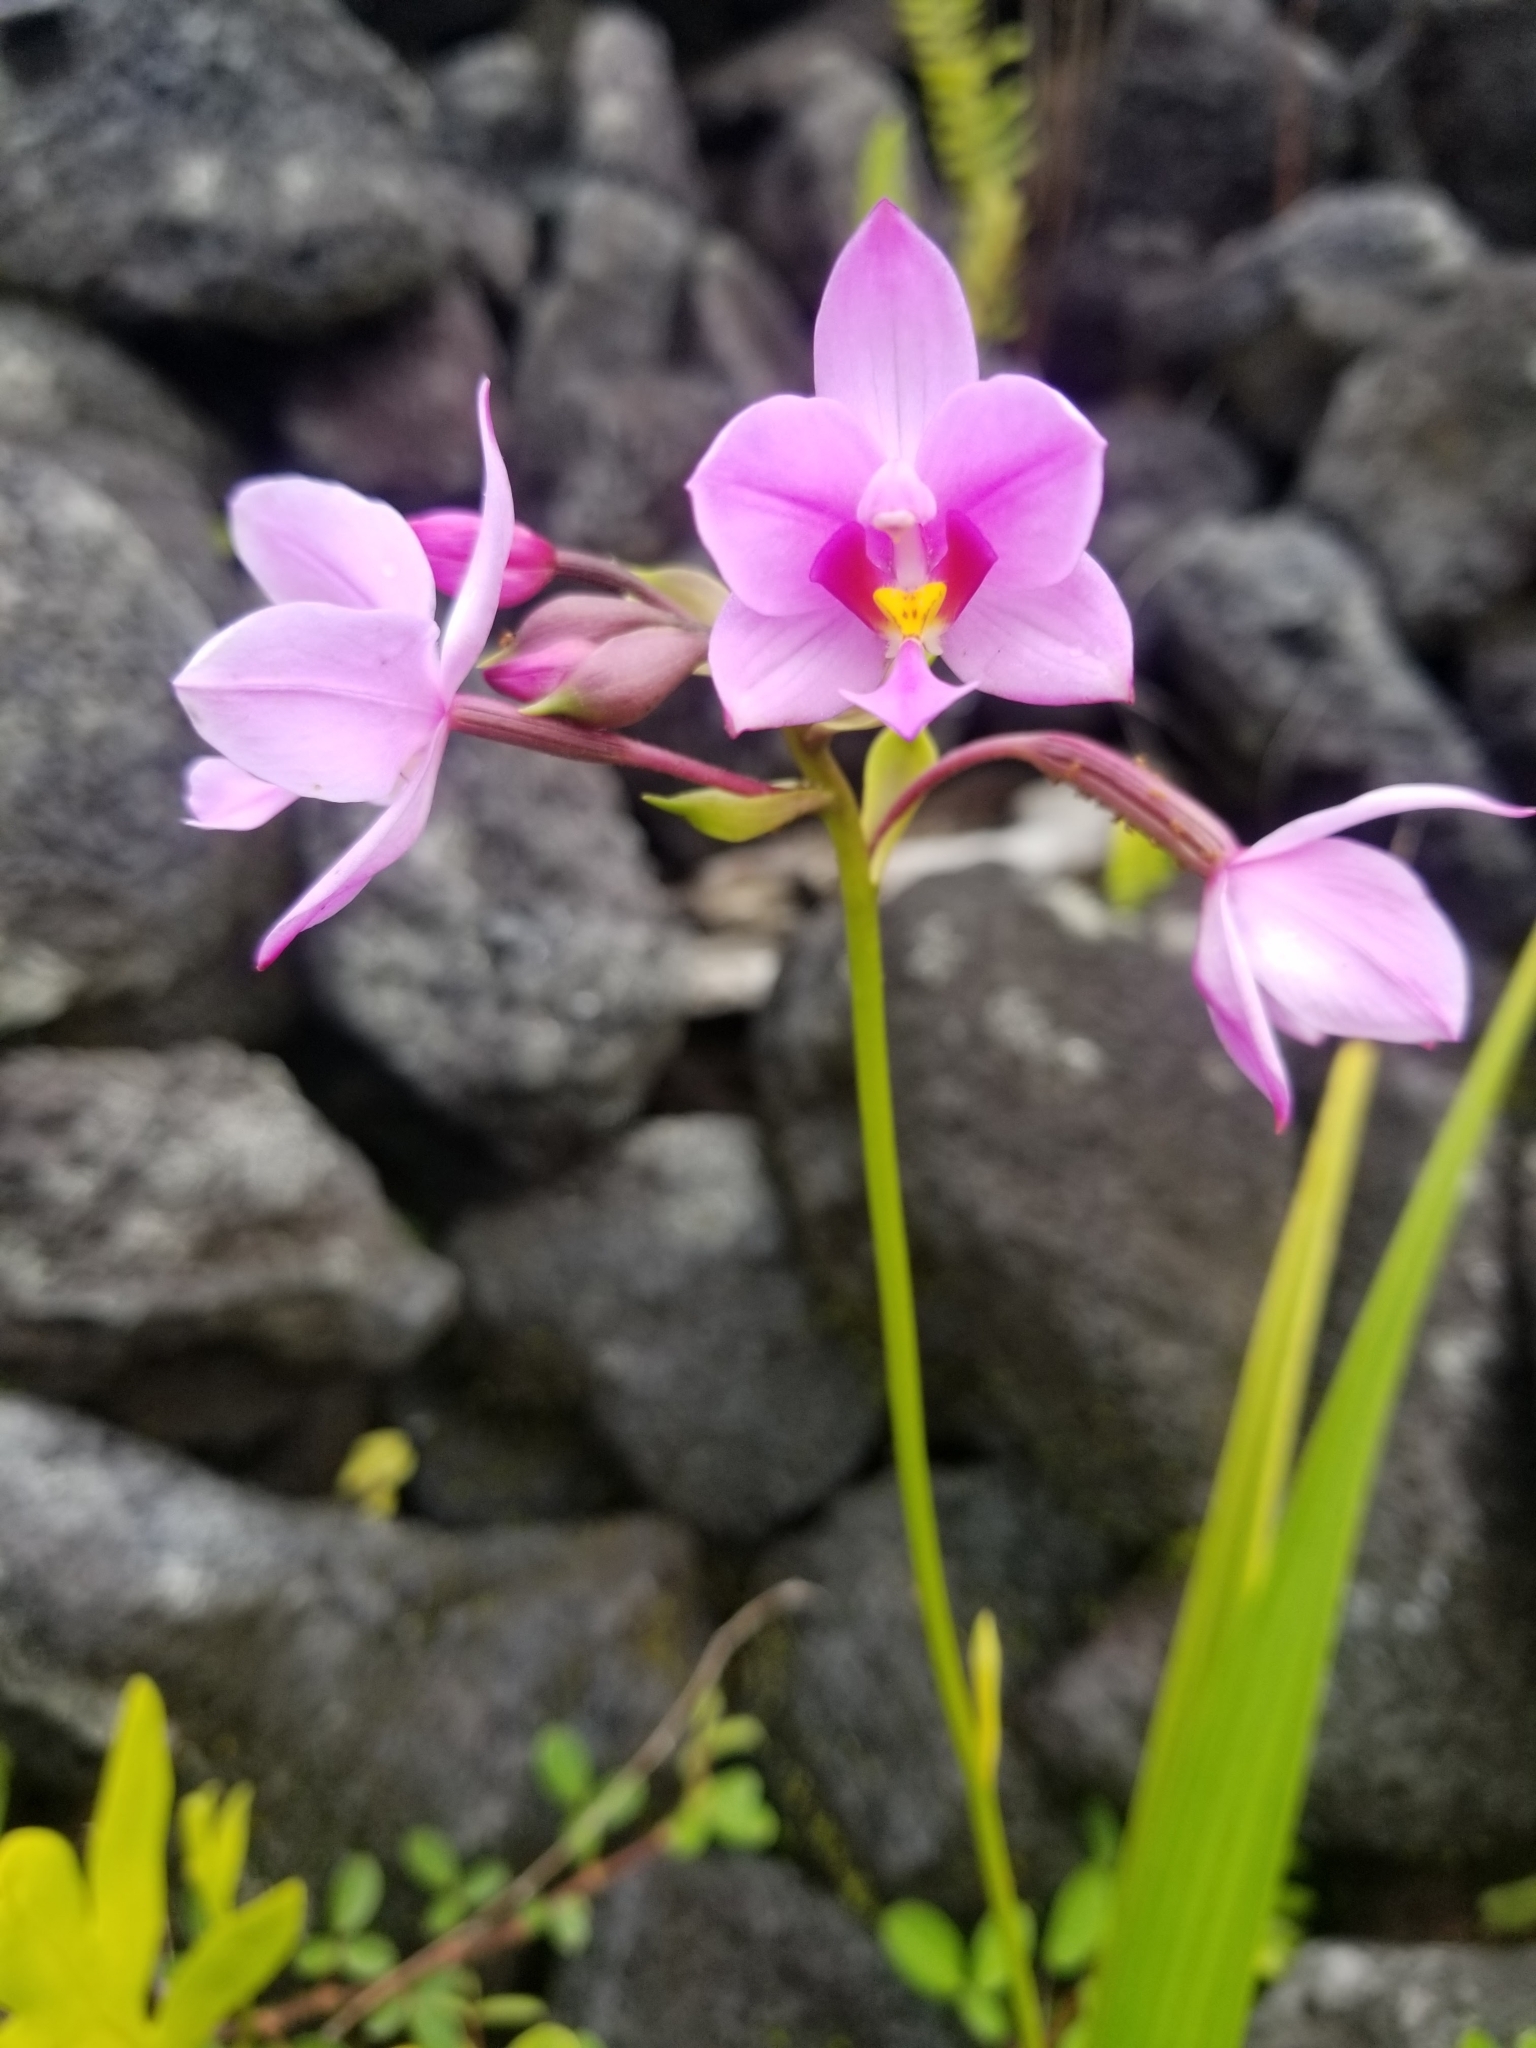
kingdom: Plantae
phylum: Tracheophyta
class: Liliopsida
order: Asparagales
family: Orchidaceae
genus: Spathoglottis
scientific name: Spathoglottis plicata
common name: Philippine ground orchid
